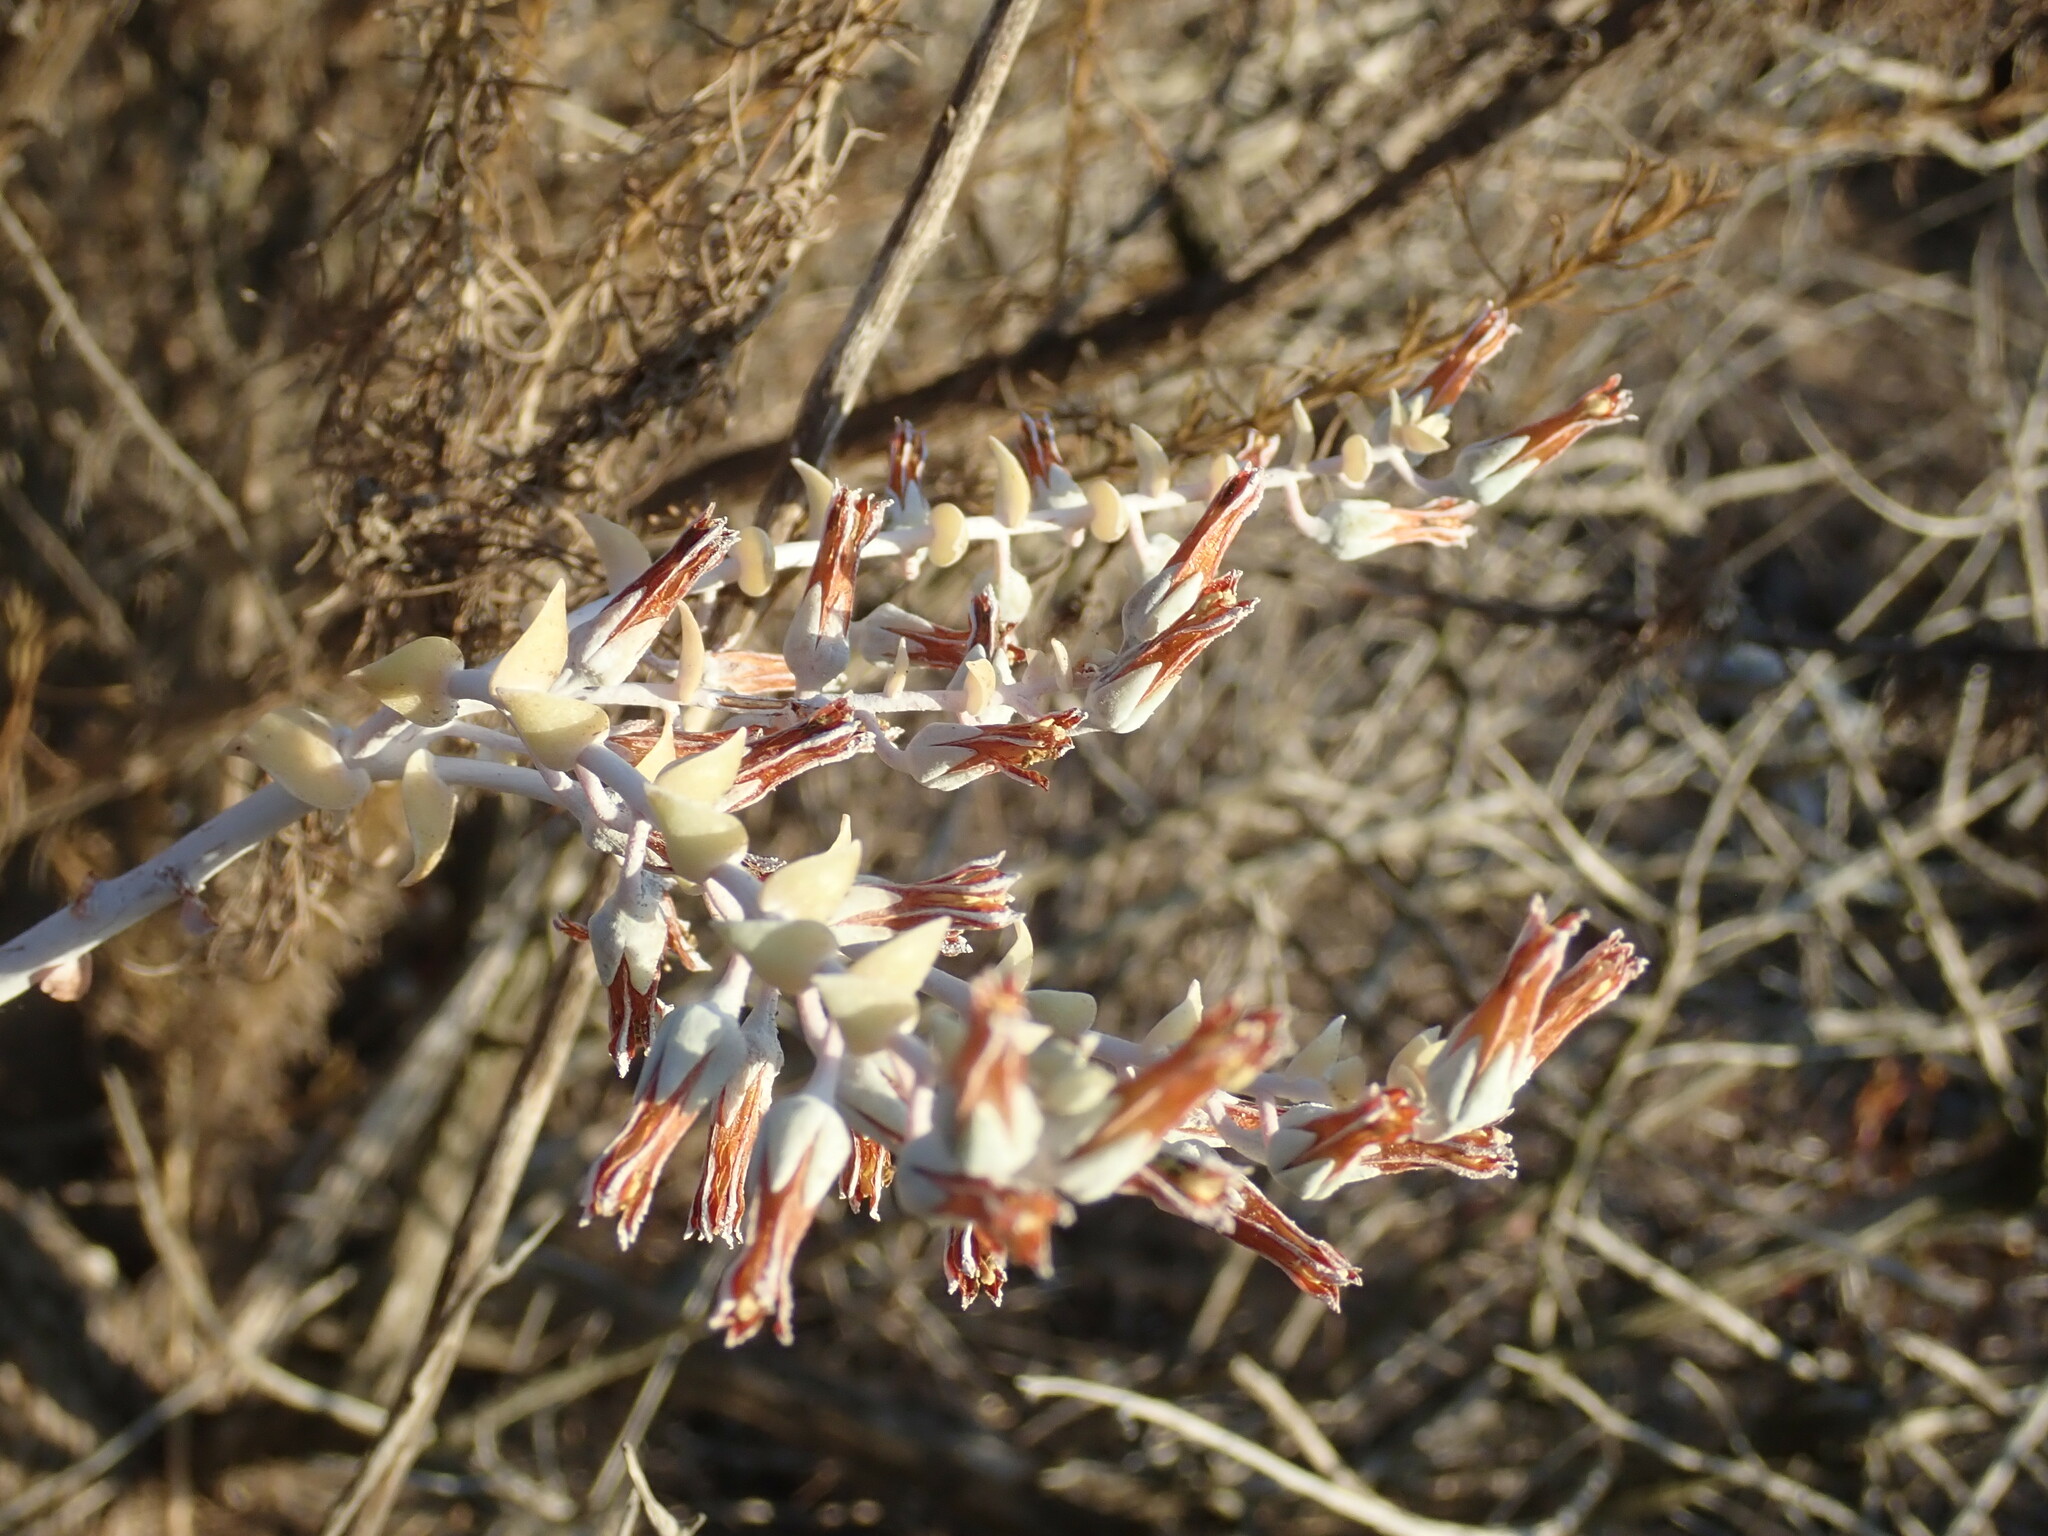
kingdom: Plantae
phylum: Tracheophyta
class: Magnoliopsida
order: Saxifragales
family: Crassulaceae
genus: Dudleya
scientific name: Dudleya pulverulenta
